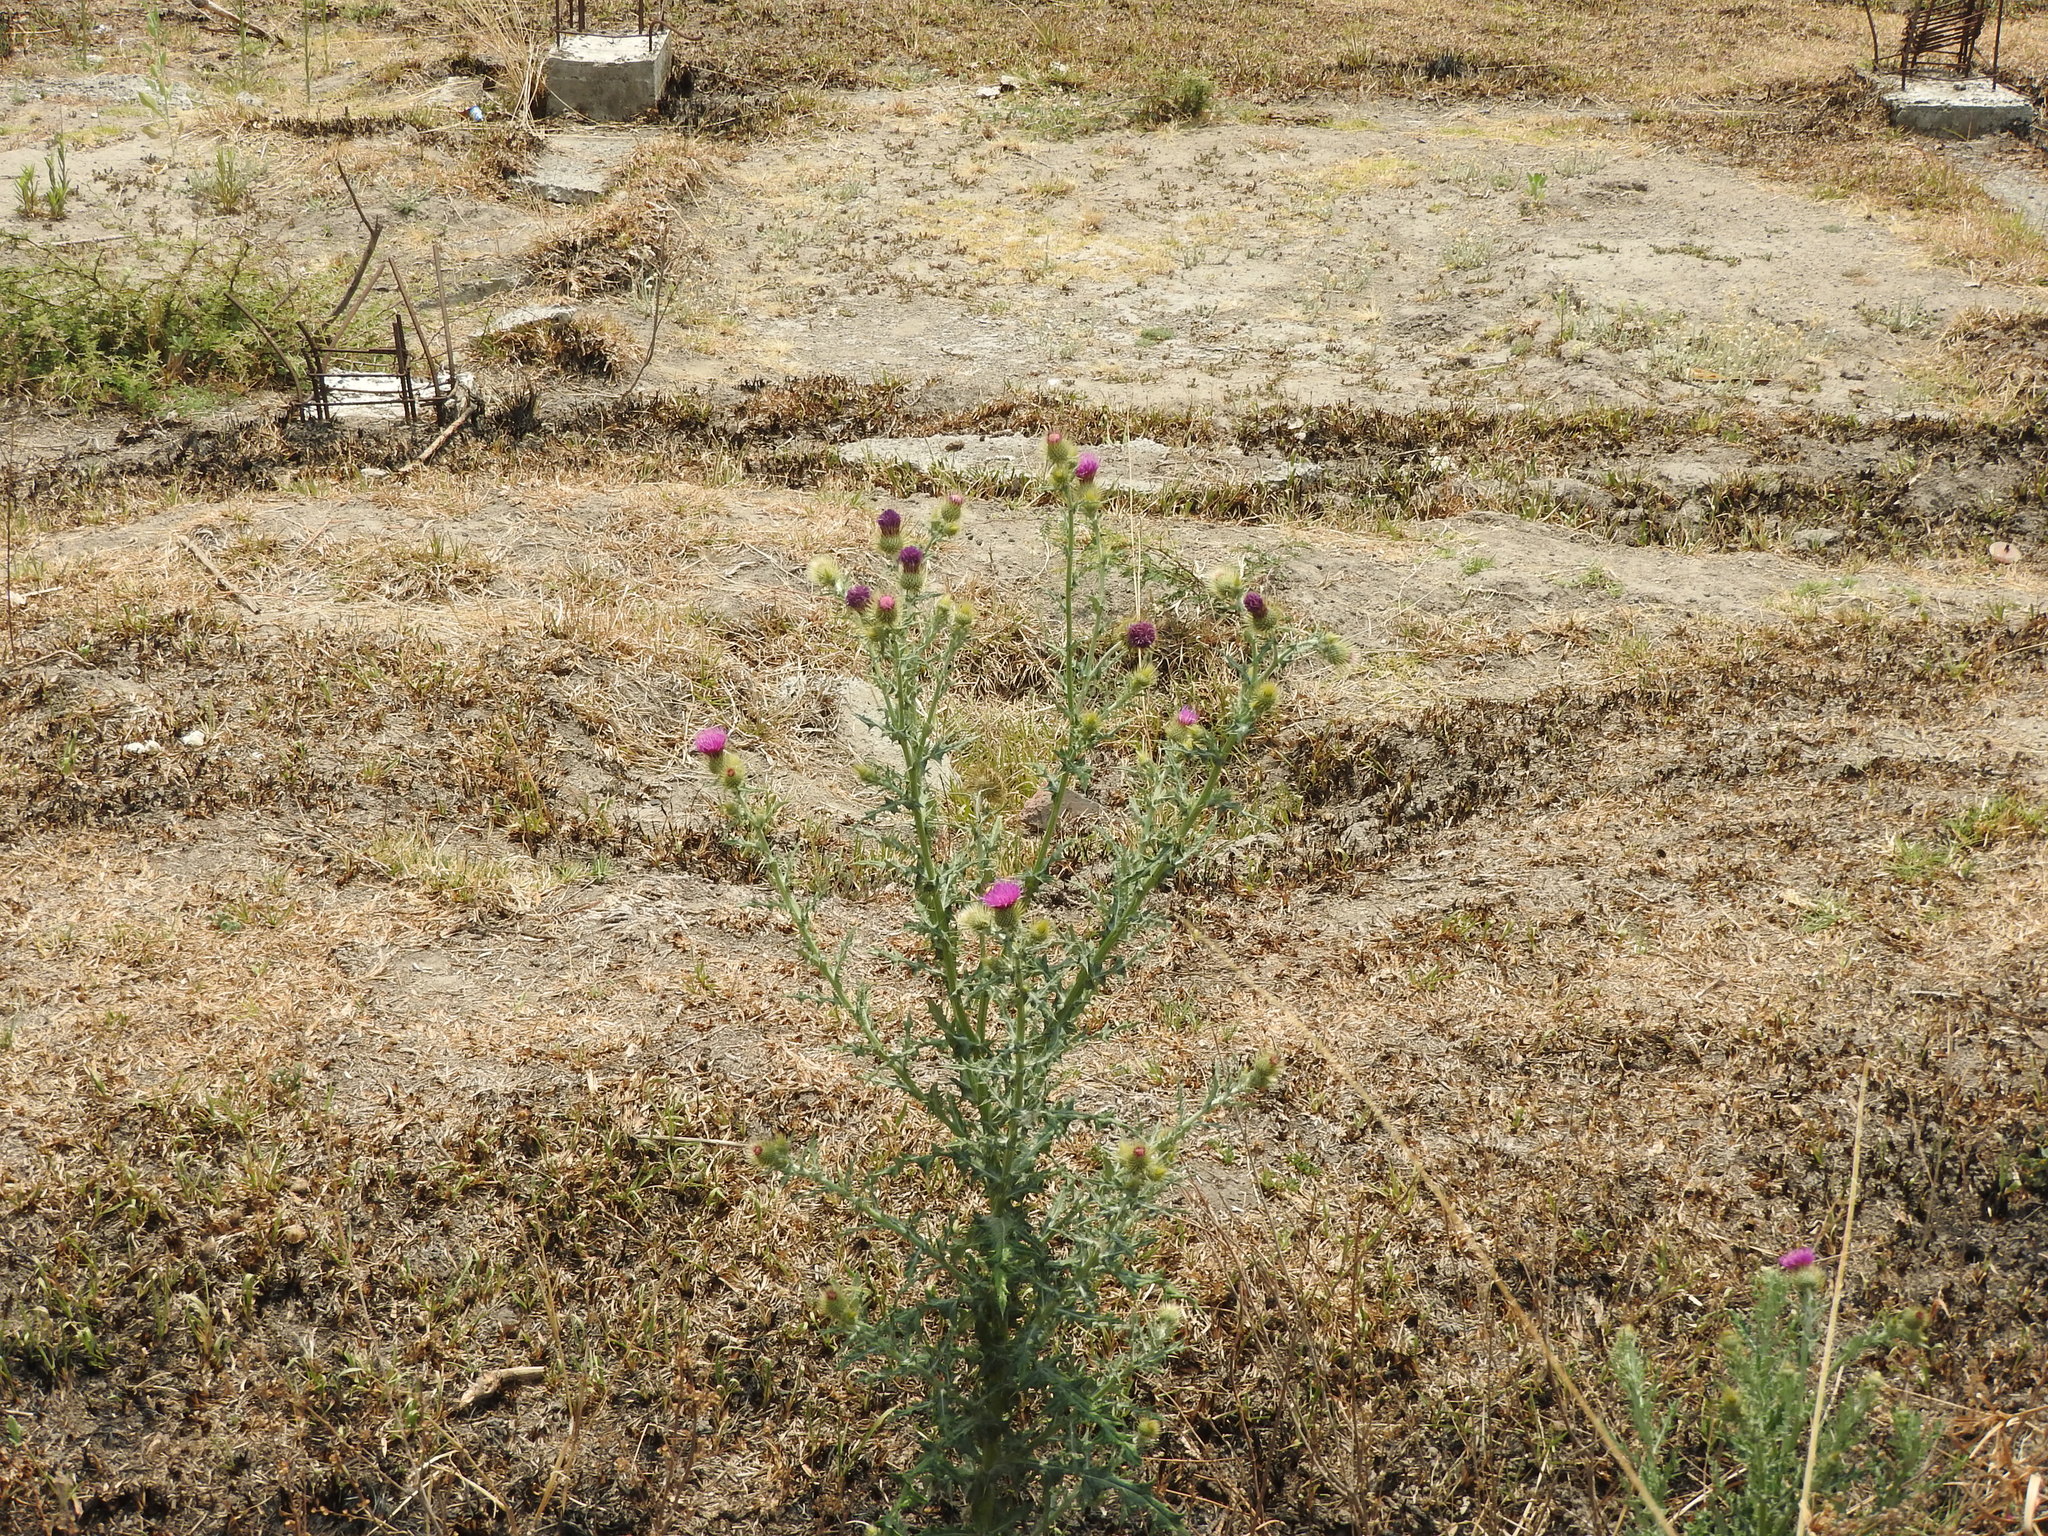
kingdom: Plantae
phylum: Tracheophyta
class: Magnoliopsida
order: Asterales
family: Asteraceae
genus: Cirsium
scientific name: Cirsium rhaphilepis
